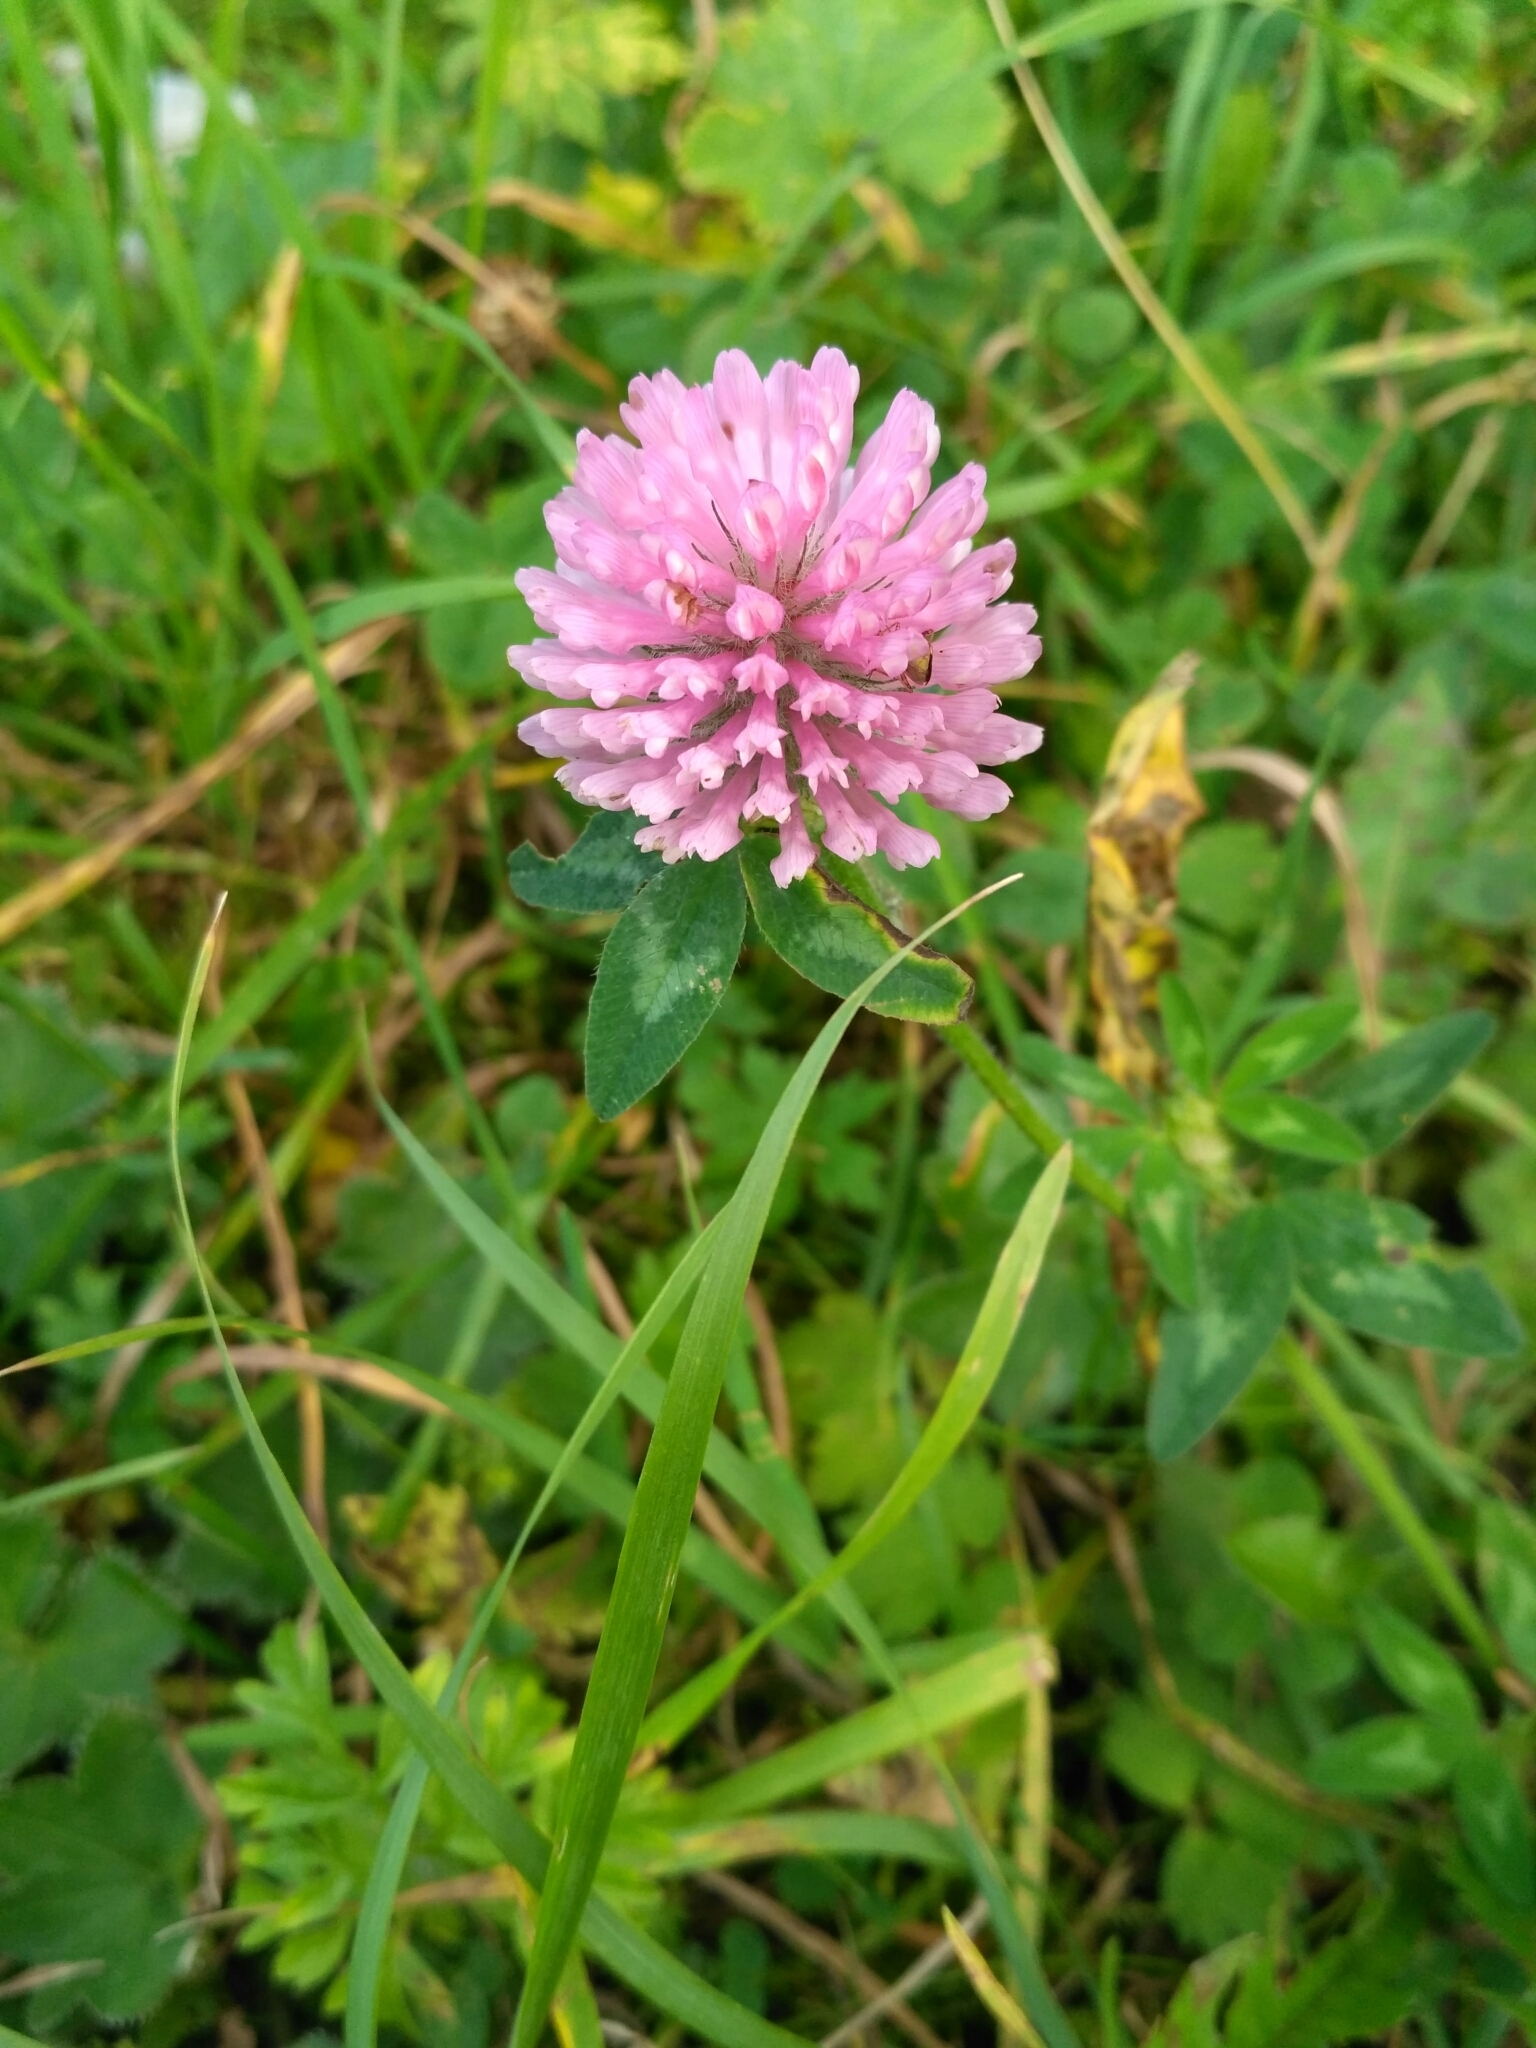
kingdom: Plantae
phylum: Tracheophyta
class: Magnoliopsida
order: Fabales
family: Fabaceae
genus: Trifolium
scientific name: Trifolium pratense
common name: Red clover
